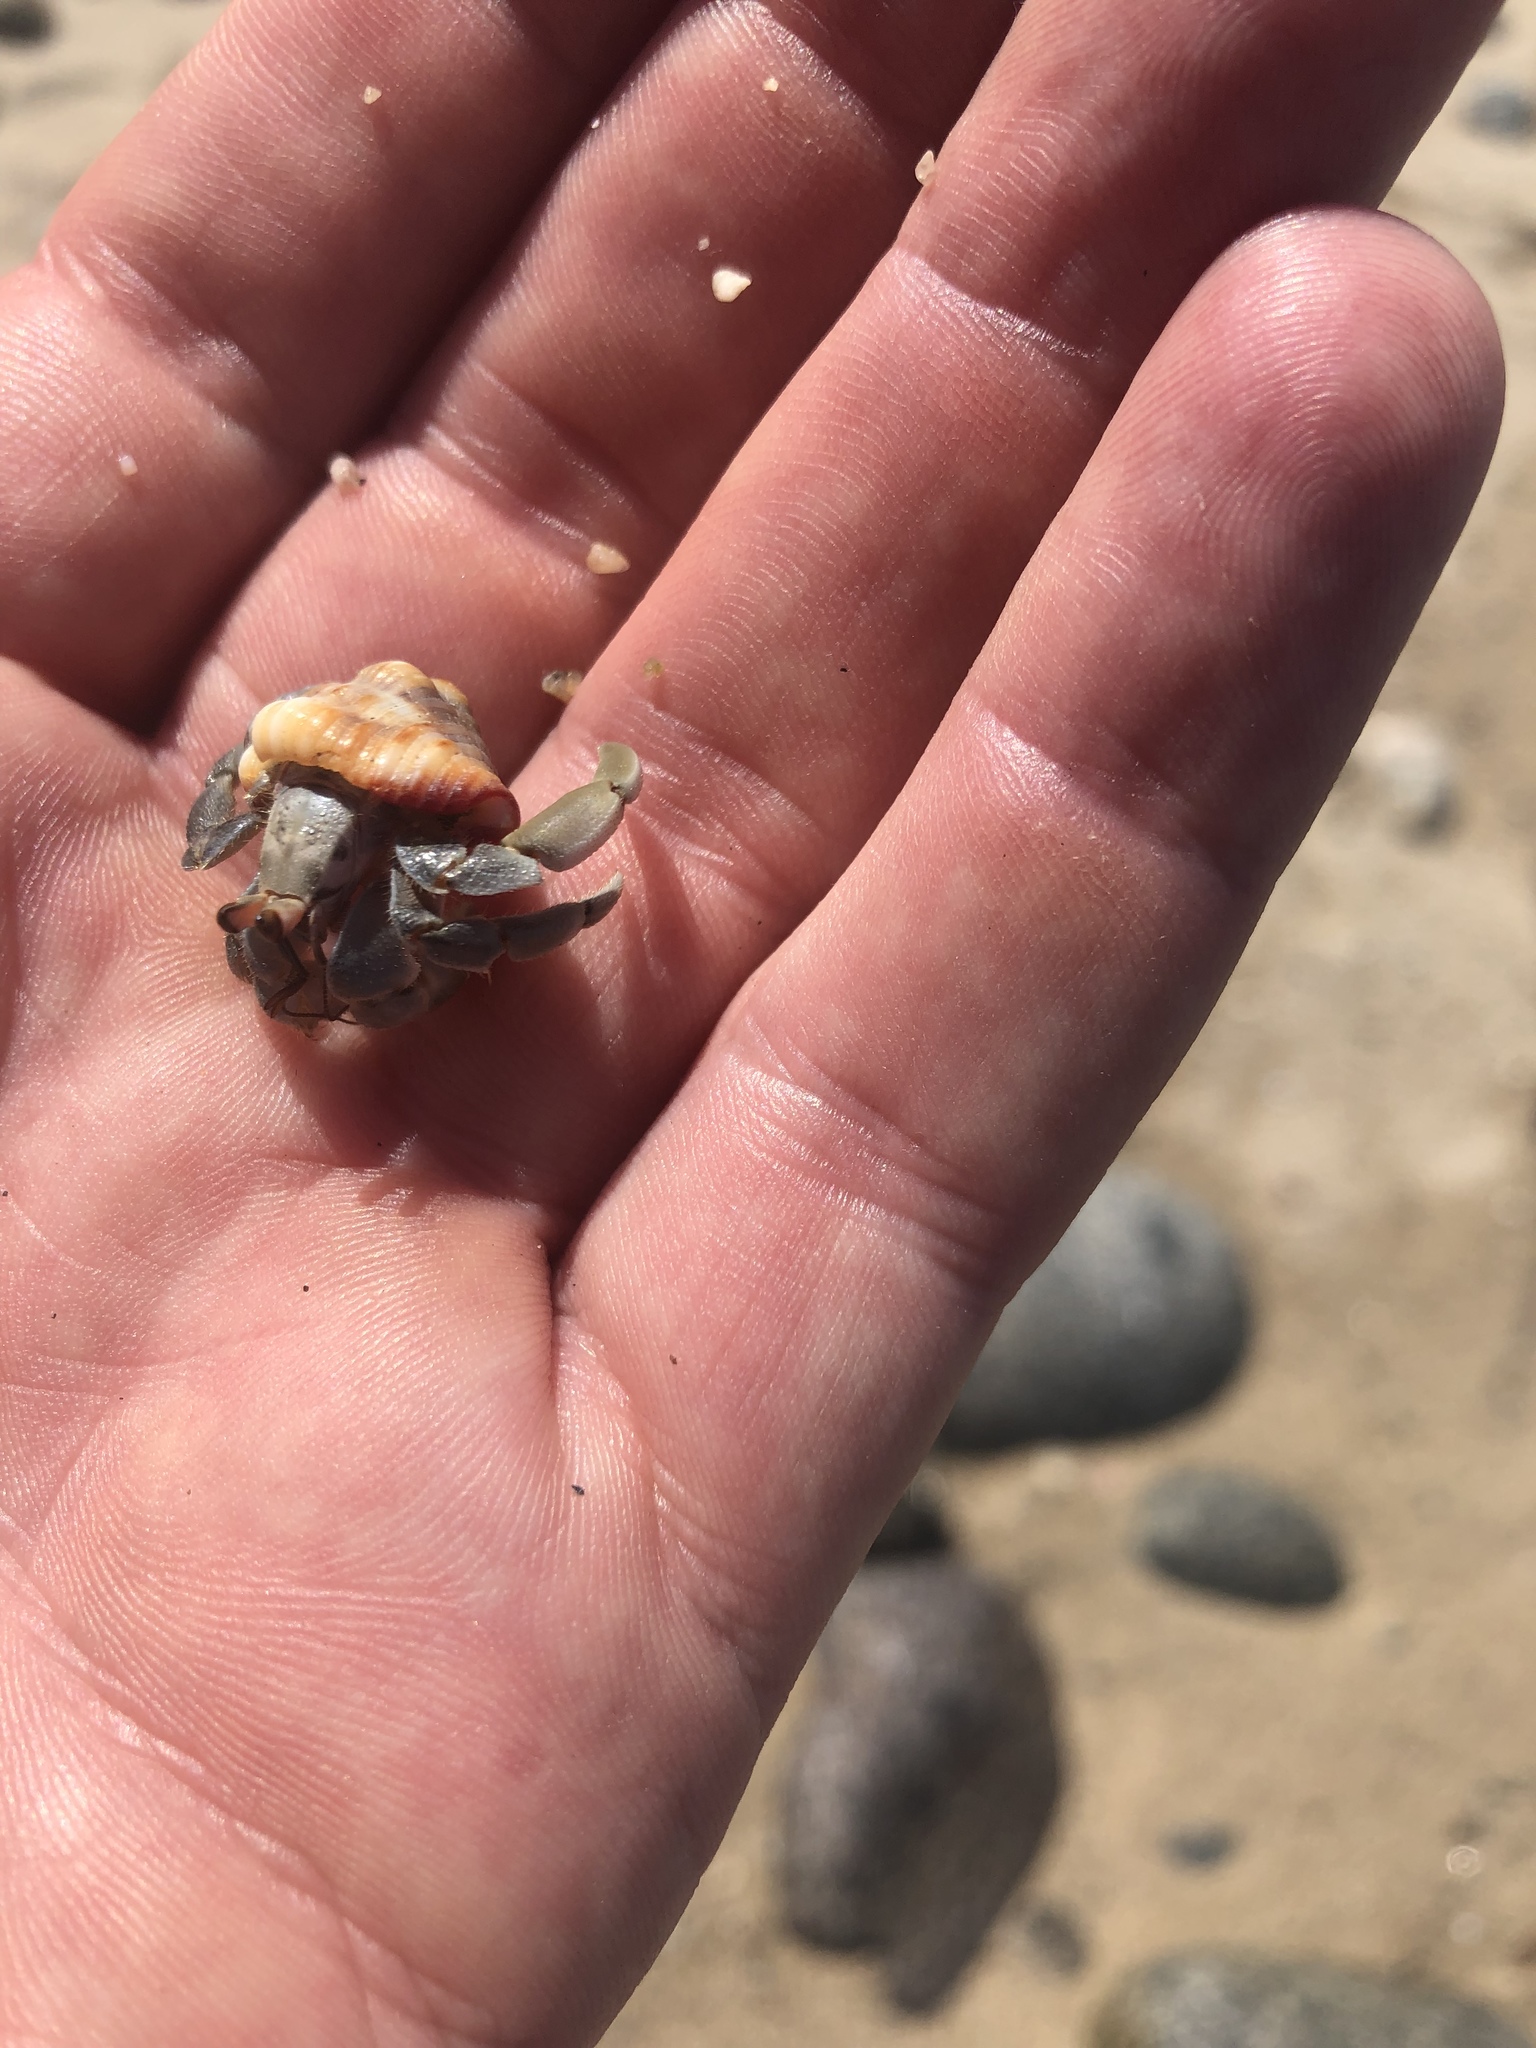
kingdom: Animalia
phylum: Arthropoda
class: Malacostraca
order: Decapoda
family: Coenobitidae
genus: Coenobita
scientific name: Coenobita compressus
